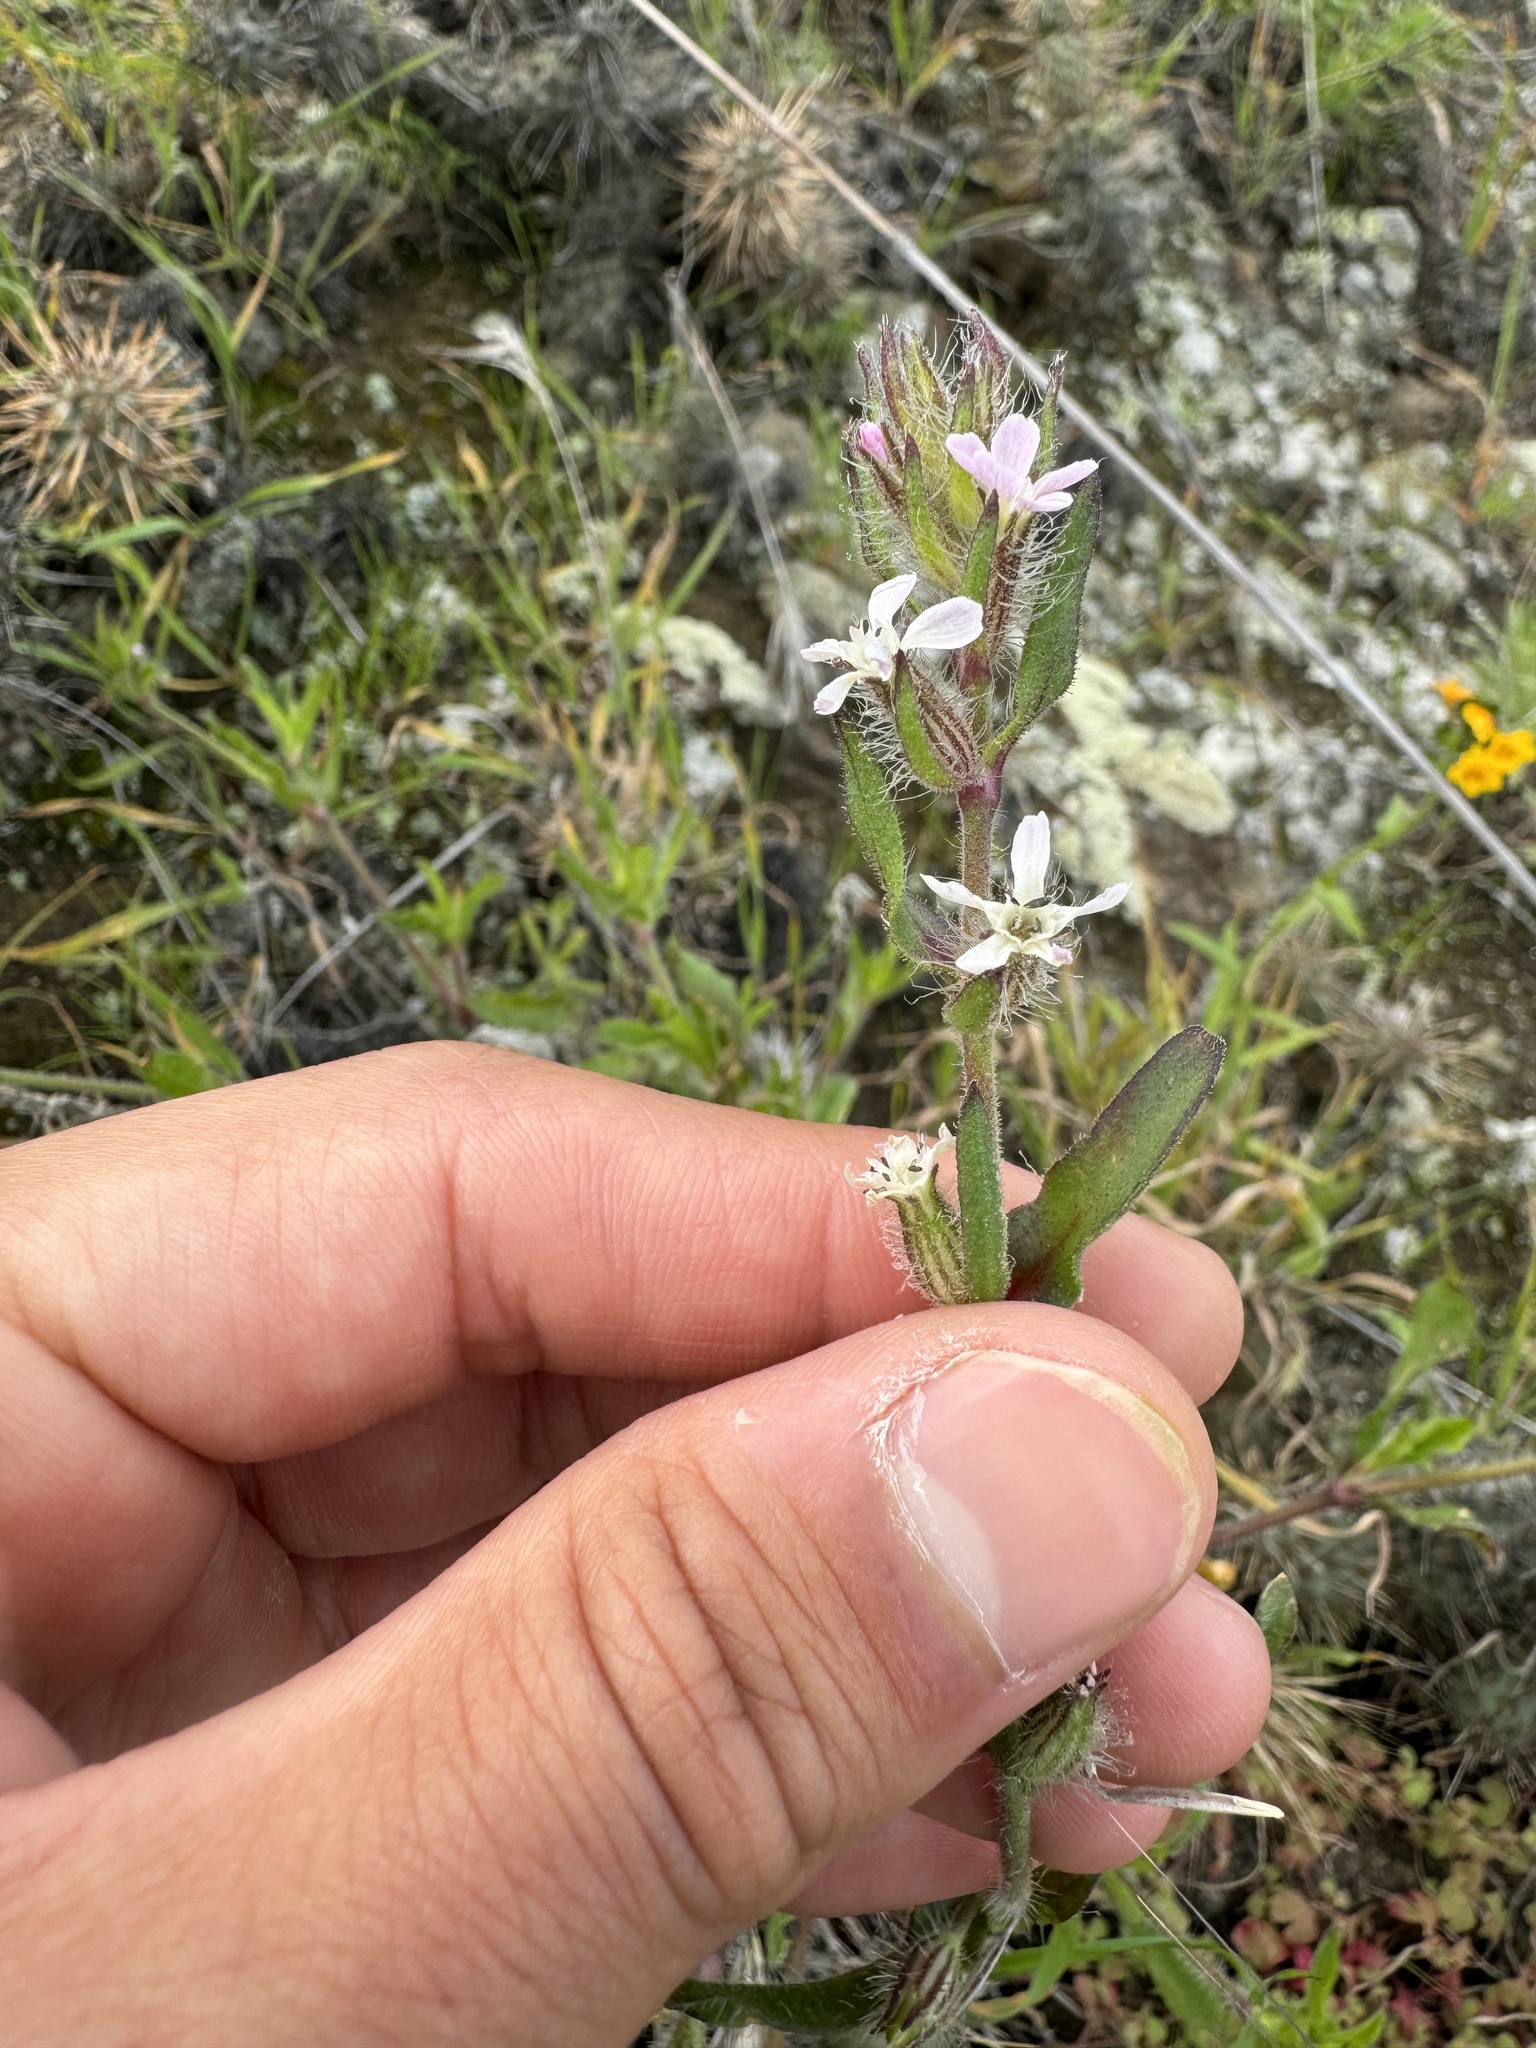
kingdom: Plantae
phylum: Tracheophyta
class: Magnoliopsida
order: Caryophyllales
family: Caryophyllaceae
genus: Silene
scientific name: Silene gallica
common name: Small-flowered catchfly
